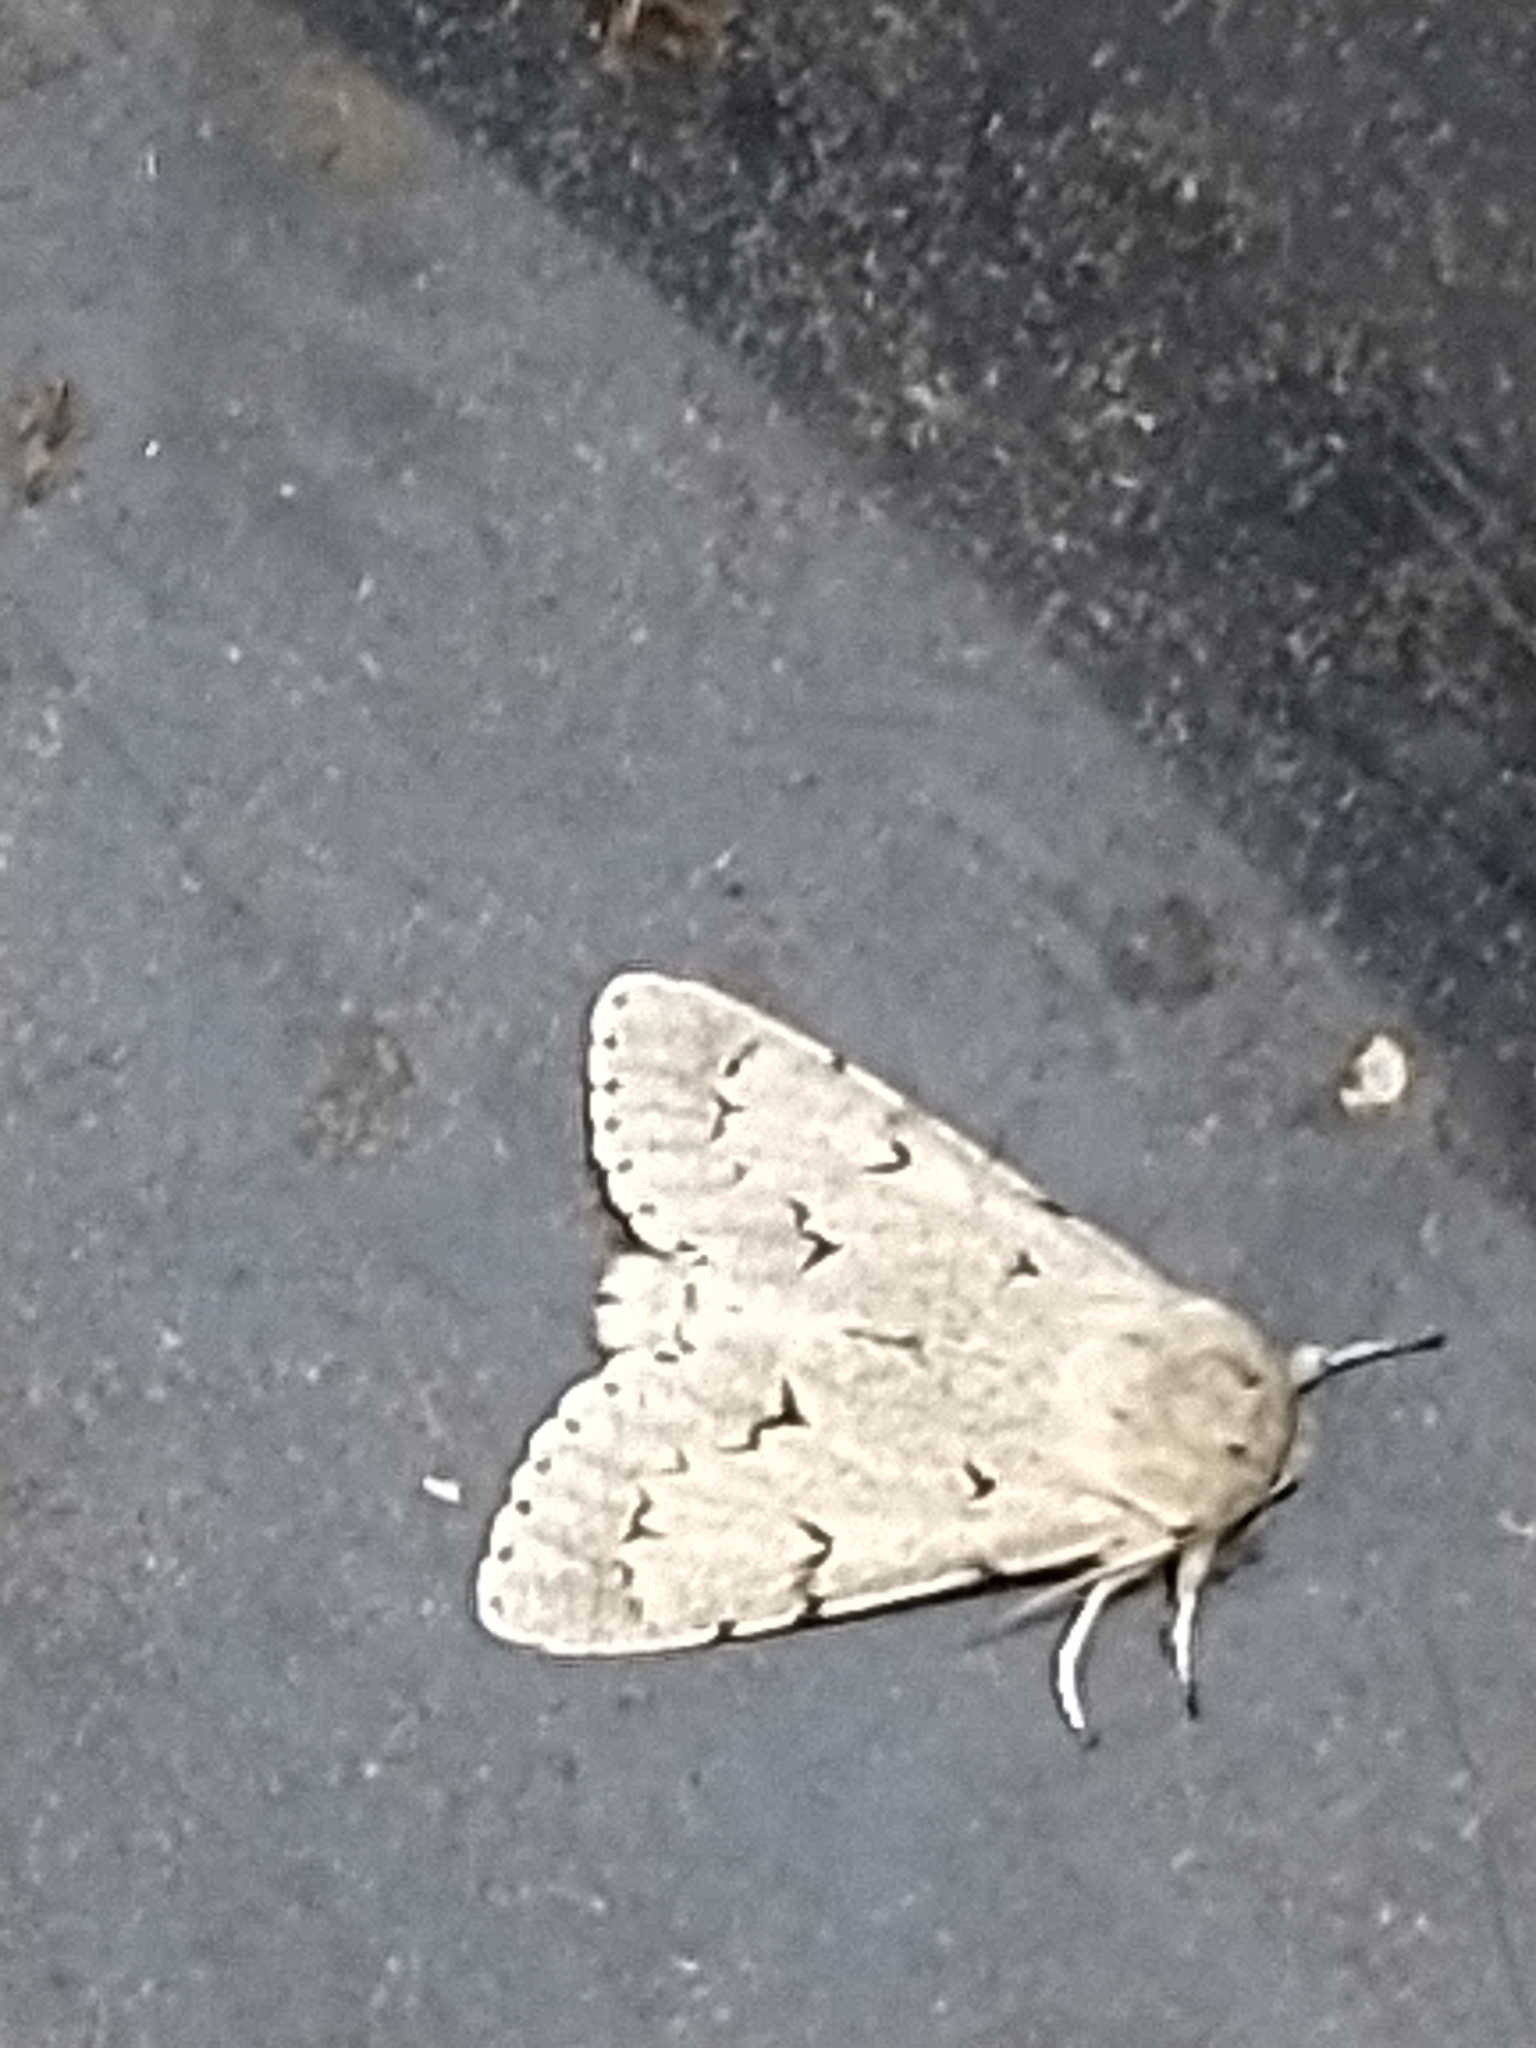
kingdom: Animalia
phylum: Arthropoda
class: Insecta
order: Lepidoptera
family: Noctuidae
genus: Acronicta
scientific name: Acronicta leporina
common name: Miller
